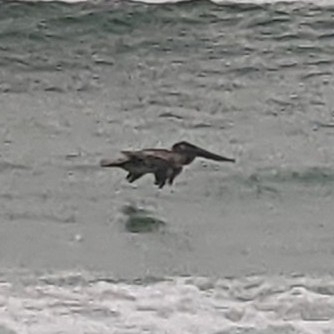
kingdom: Animalia
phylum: Chordata
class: Aves
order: Pelecaniformes
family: Pelecanidae
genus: Pelecanus
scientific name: Pelecanus occidentalis
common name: Brown pelican
